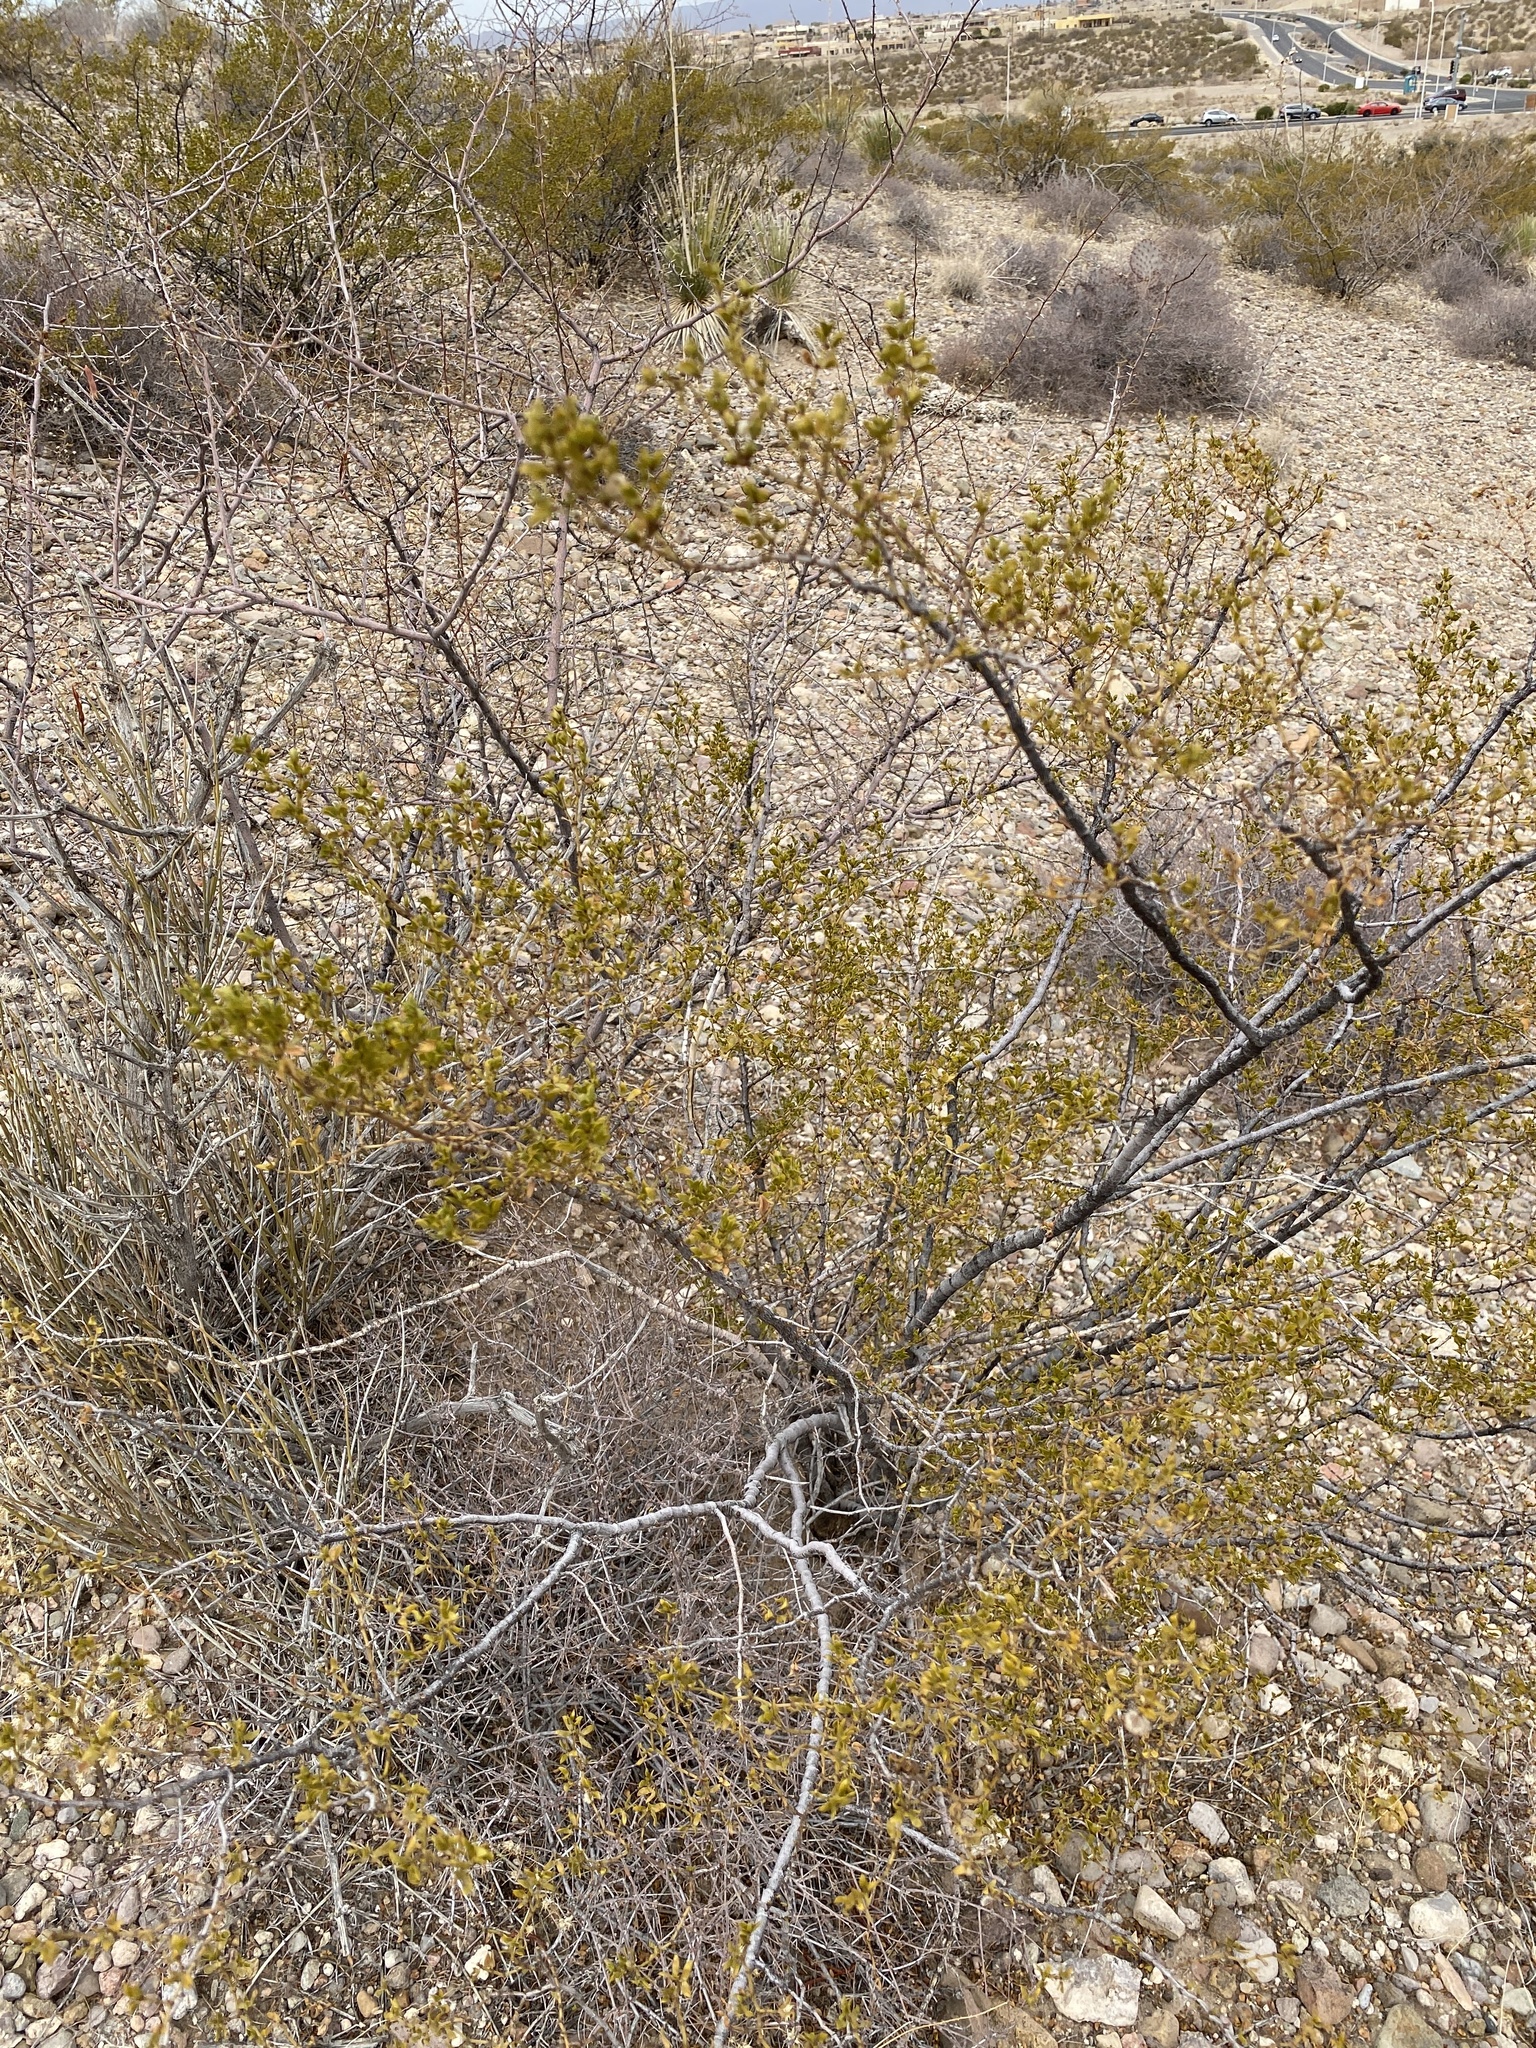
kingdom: Plantae
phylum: Tracheophyta
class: Magnoliopsida
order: Zygophyllales
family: Zygophyllaceae
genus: Larrea
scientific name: Larrea tridentata
